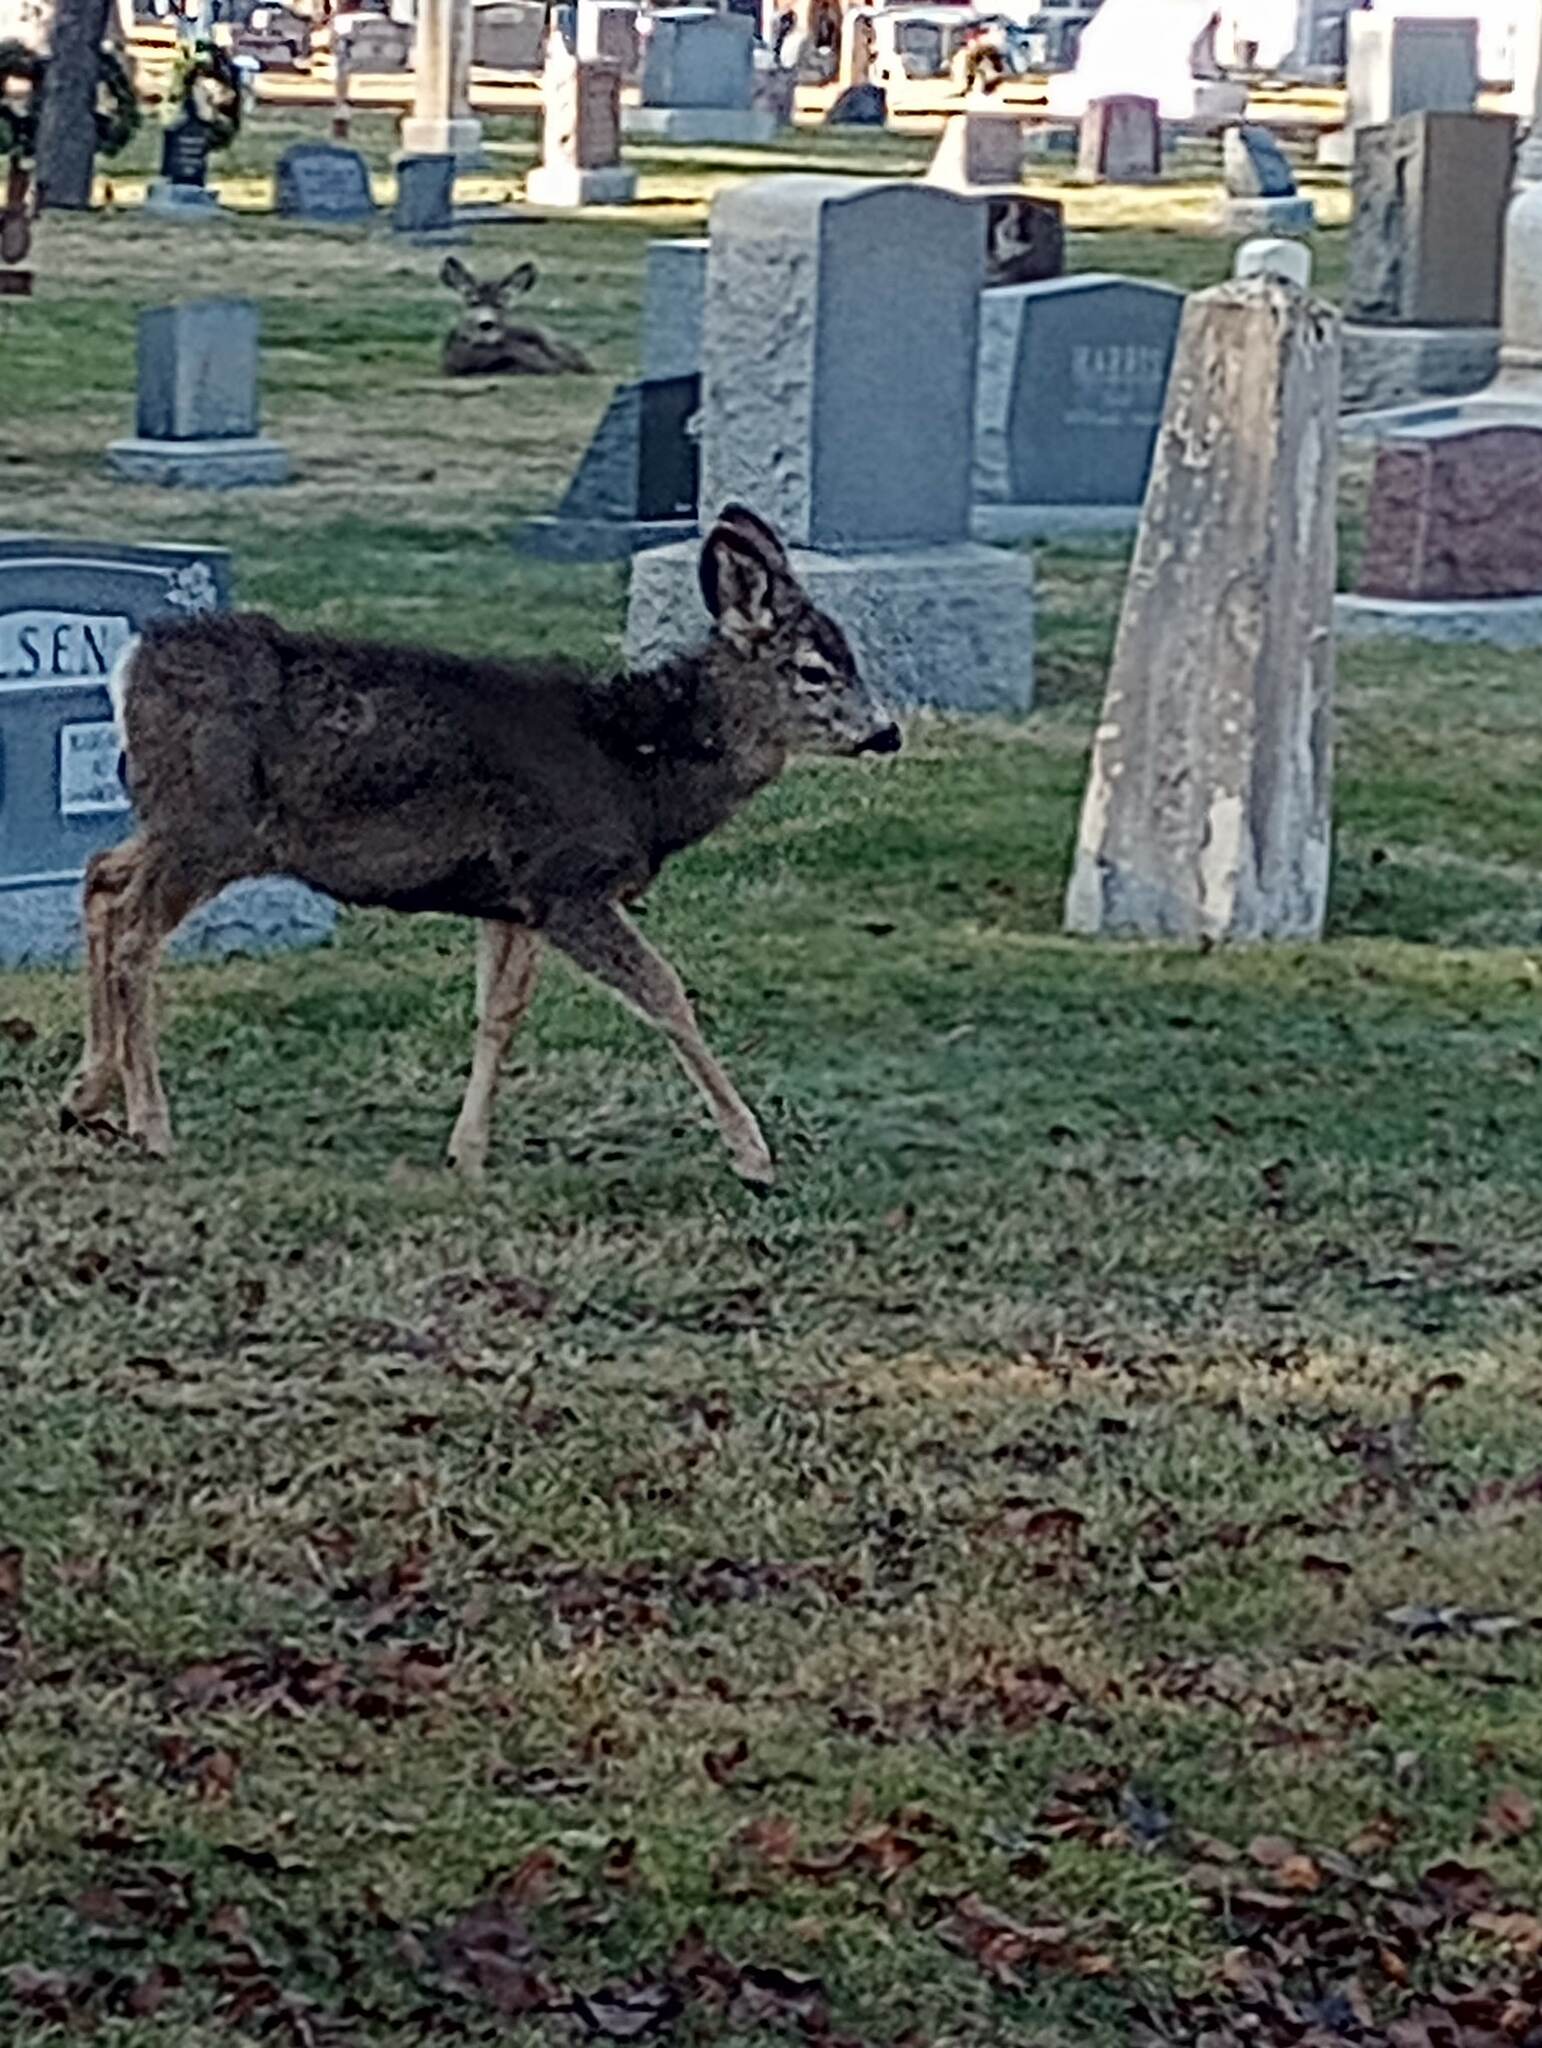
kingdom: Animalia
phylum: Chordata
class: Mammalia
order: Artiodactyla
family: Cervidae
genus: Odocoileus
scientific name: Odocoileus hemionus
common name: Mule deer
